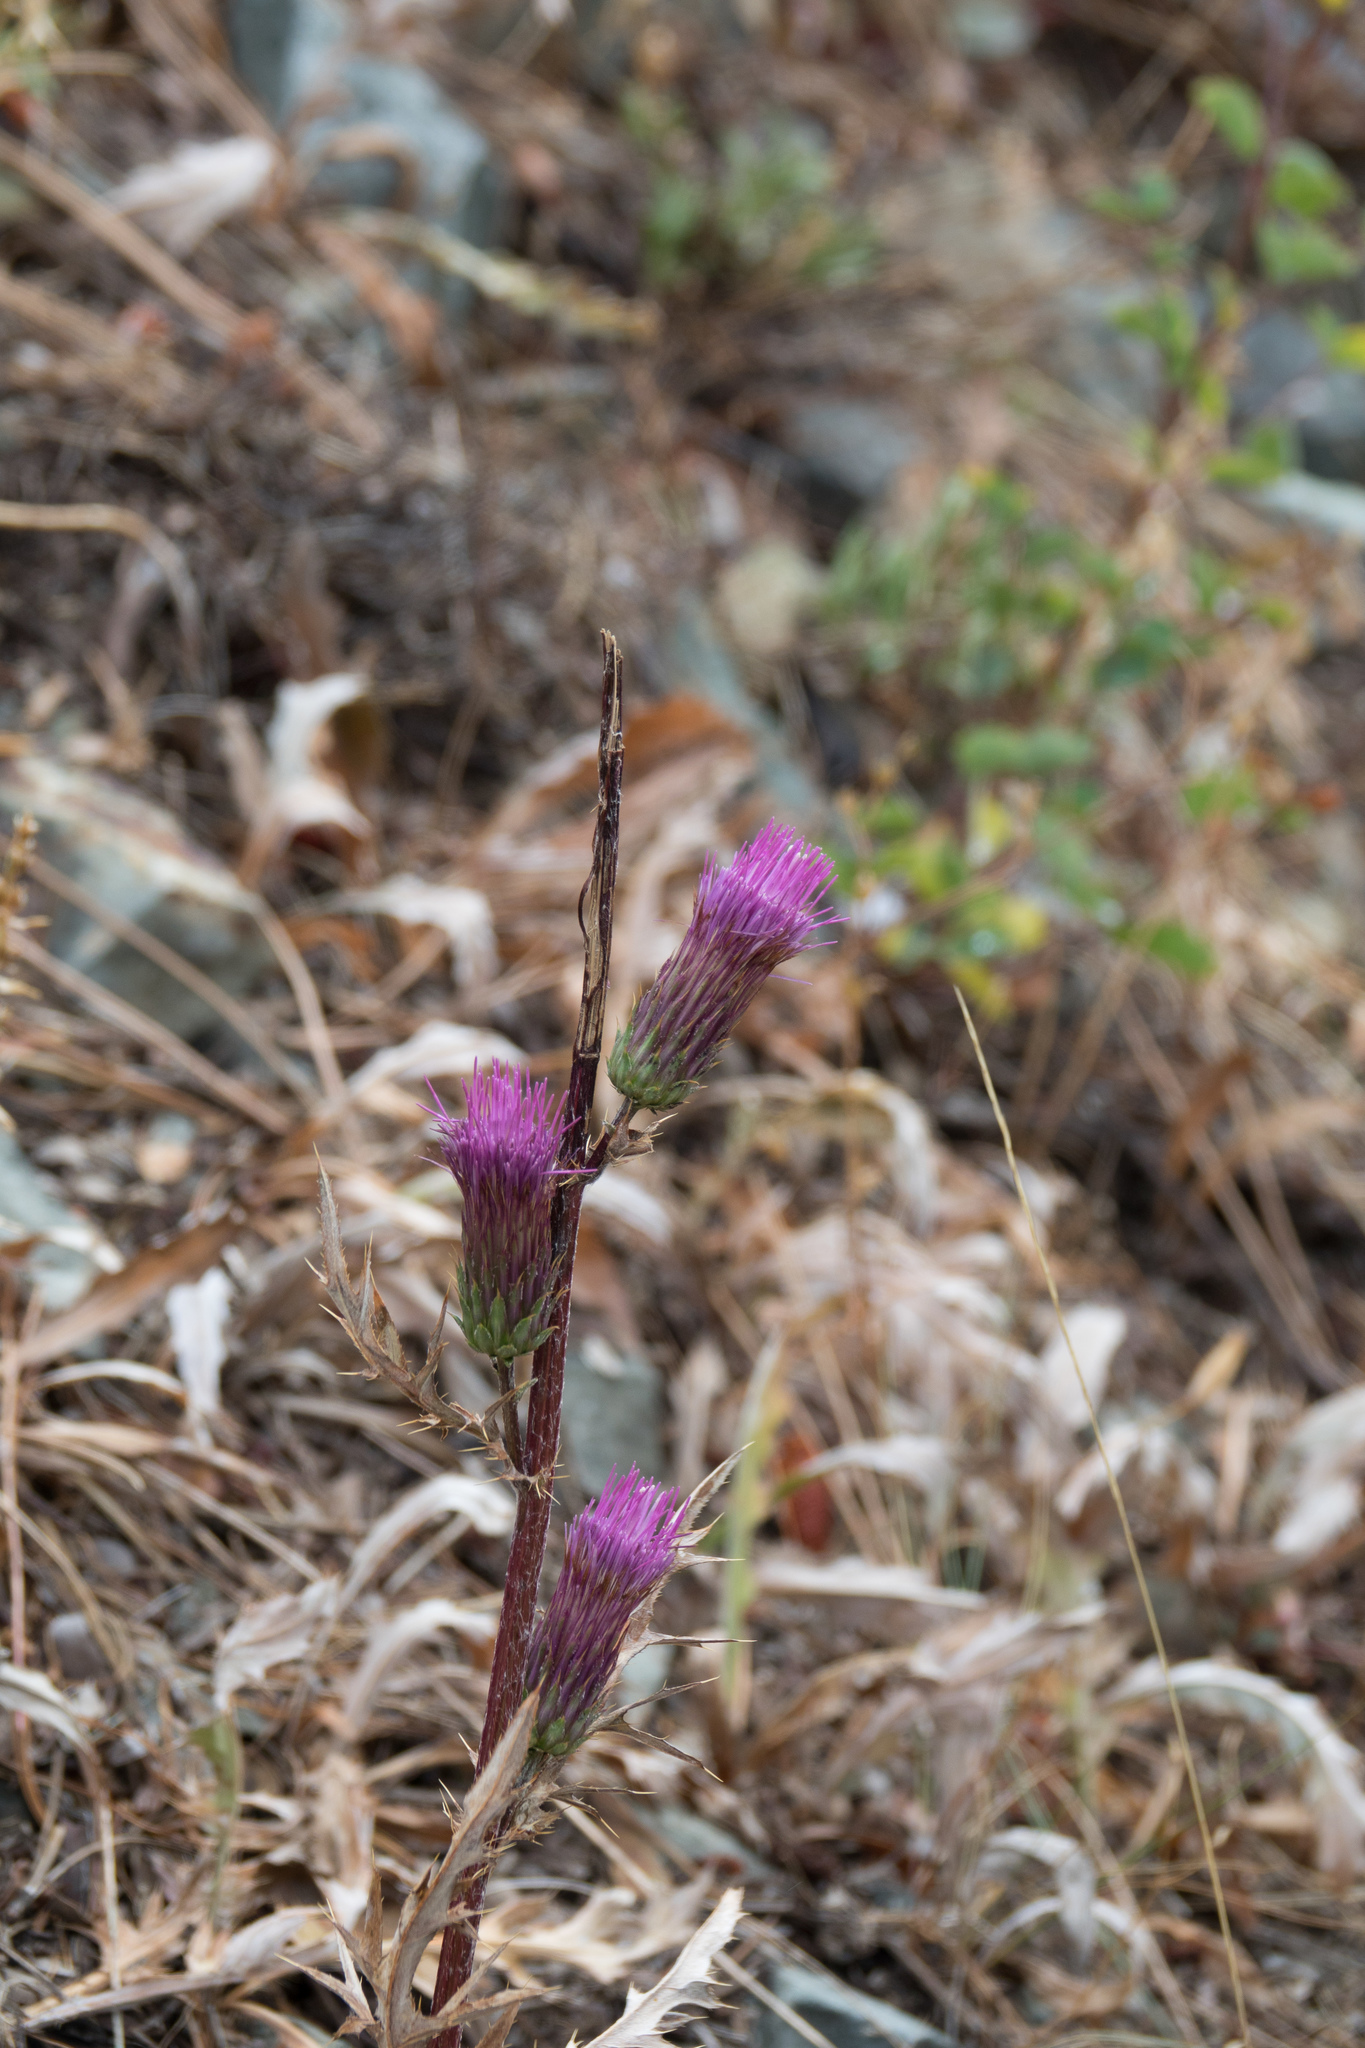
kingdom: Plantae
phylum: Tracheophyta
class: Magnoliopsida
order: Asterales
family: Asteraceae
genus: Cirsium
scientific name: Cirsium andersonii
